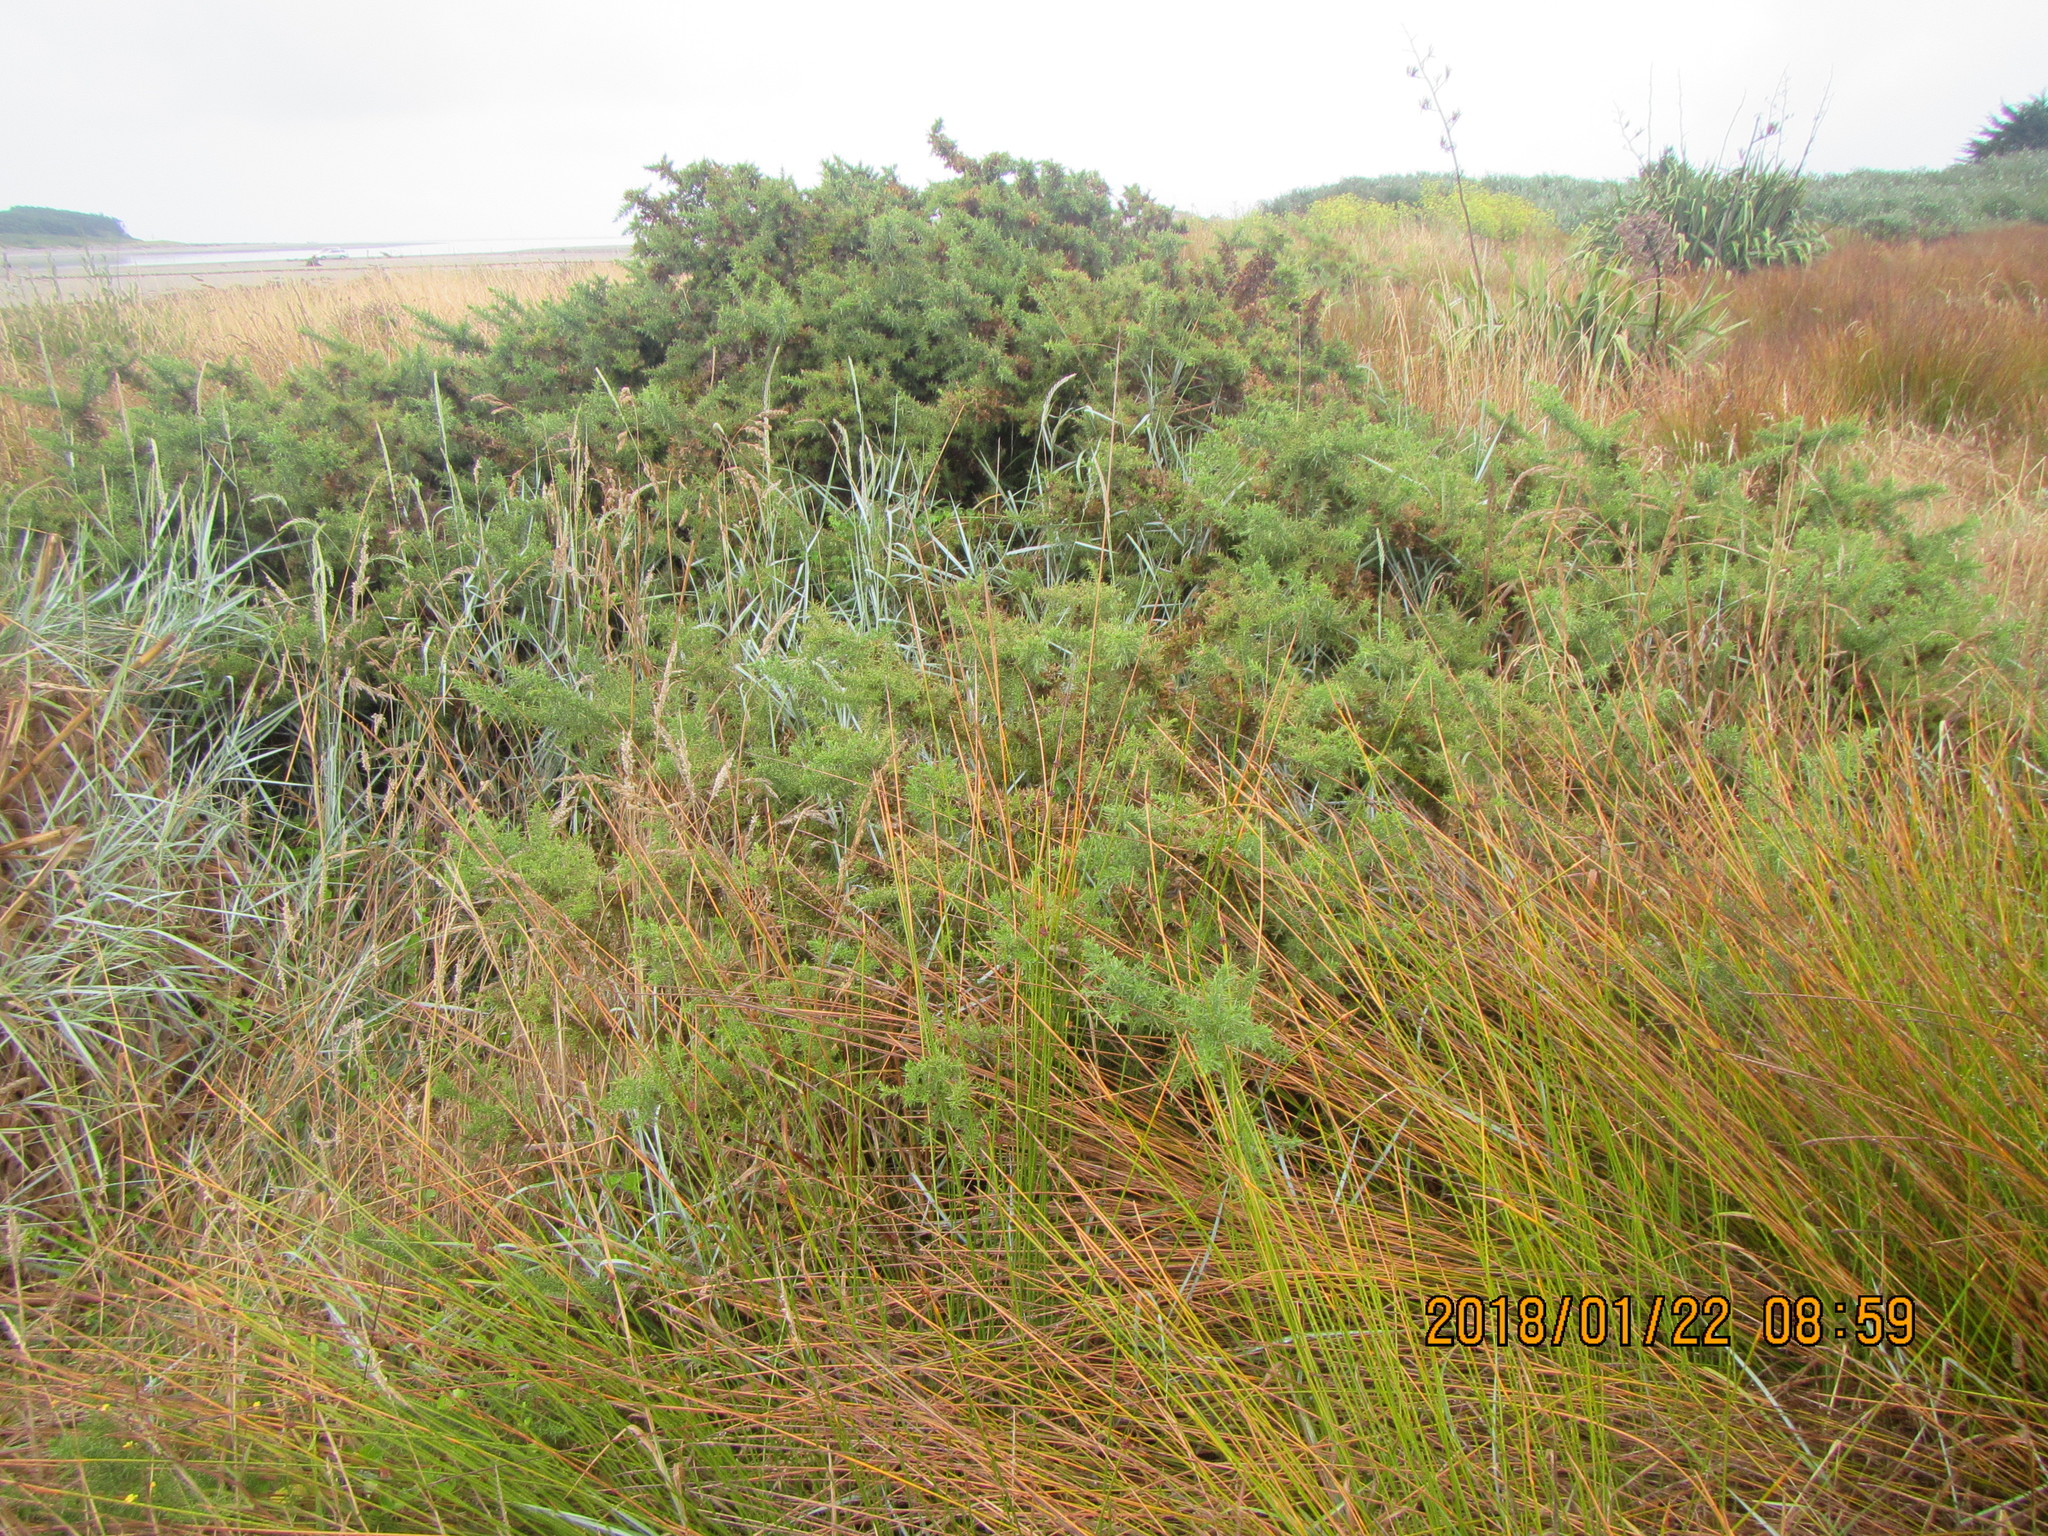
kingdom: Plantae
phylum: Tracheophyta
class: Magnoliopsida
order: Fabales
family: Fabaceae
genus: Ulex
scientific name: Ulex europaeus
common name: Common gorse
